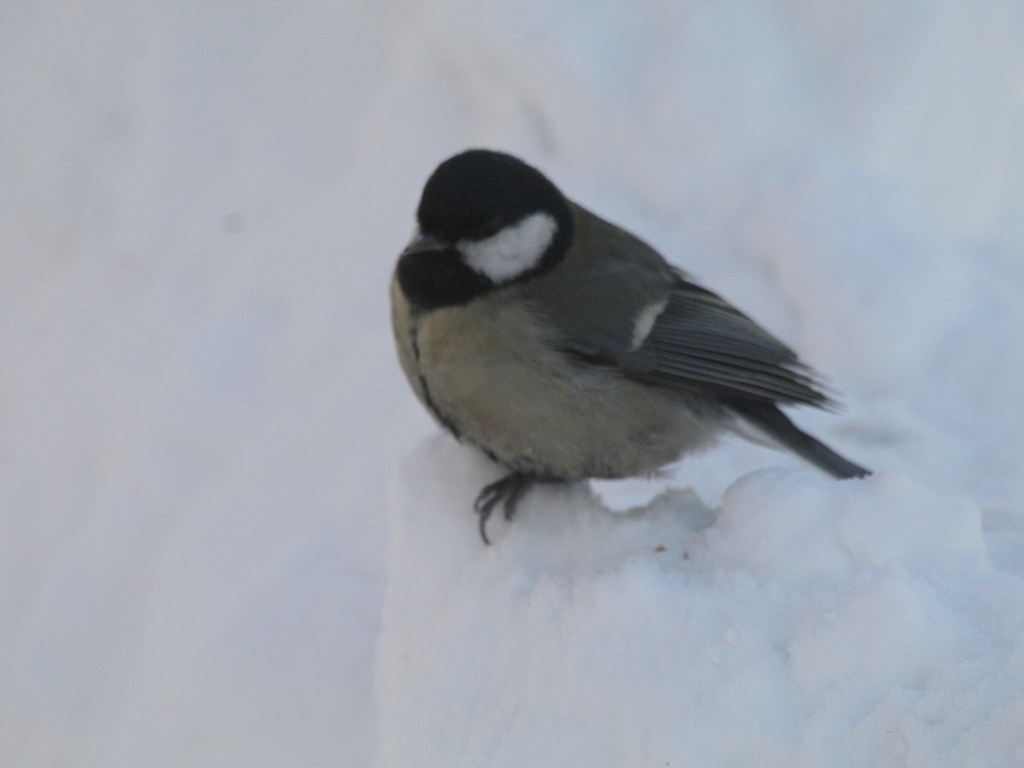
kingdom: Animalia
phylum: Chordata
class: Aves
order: Passeriformes
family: Paridae
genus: Parus
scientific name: Parus major
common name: Great tit
